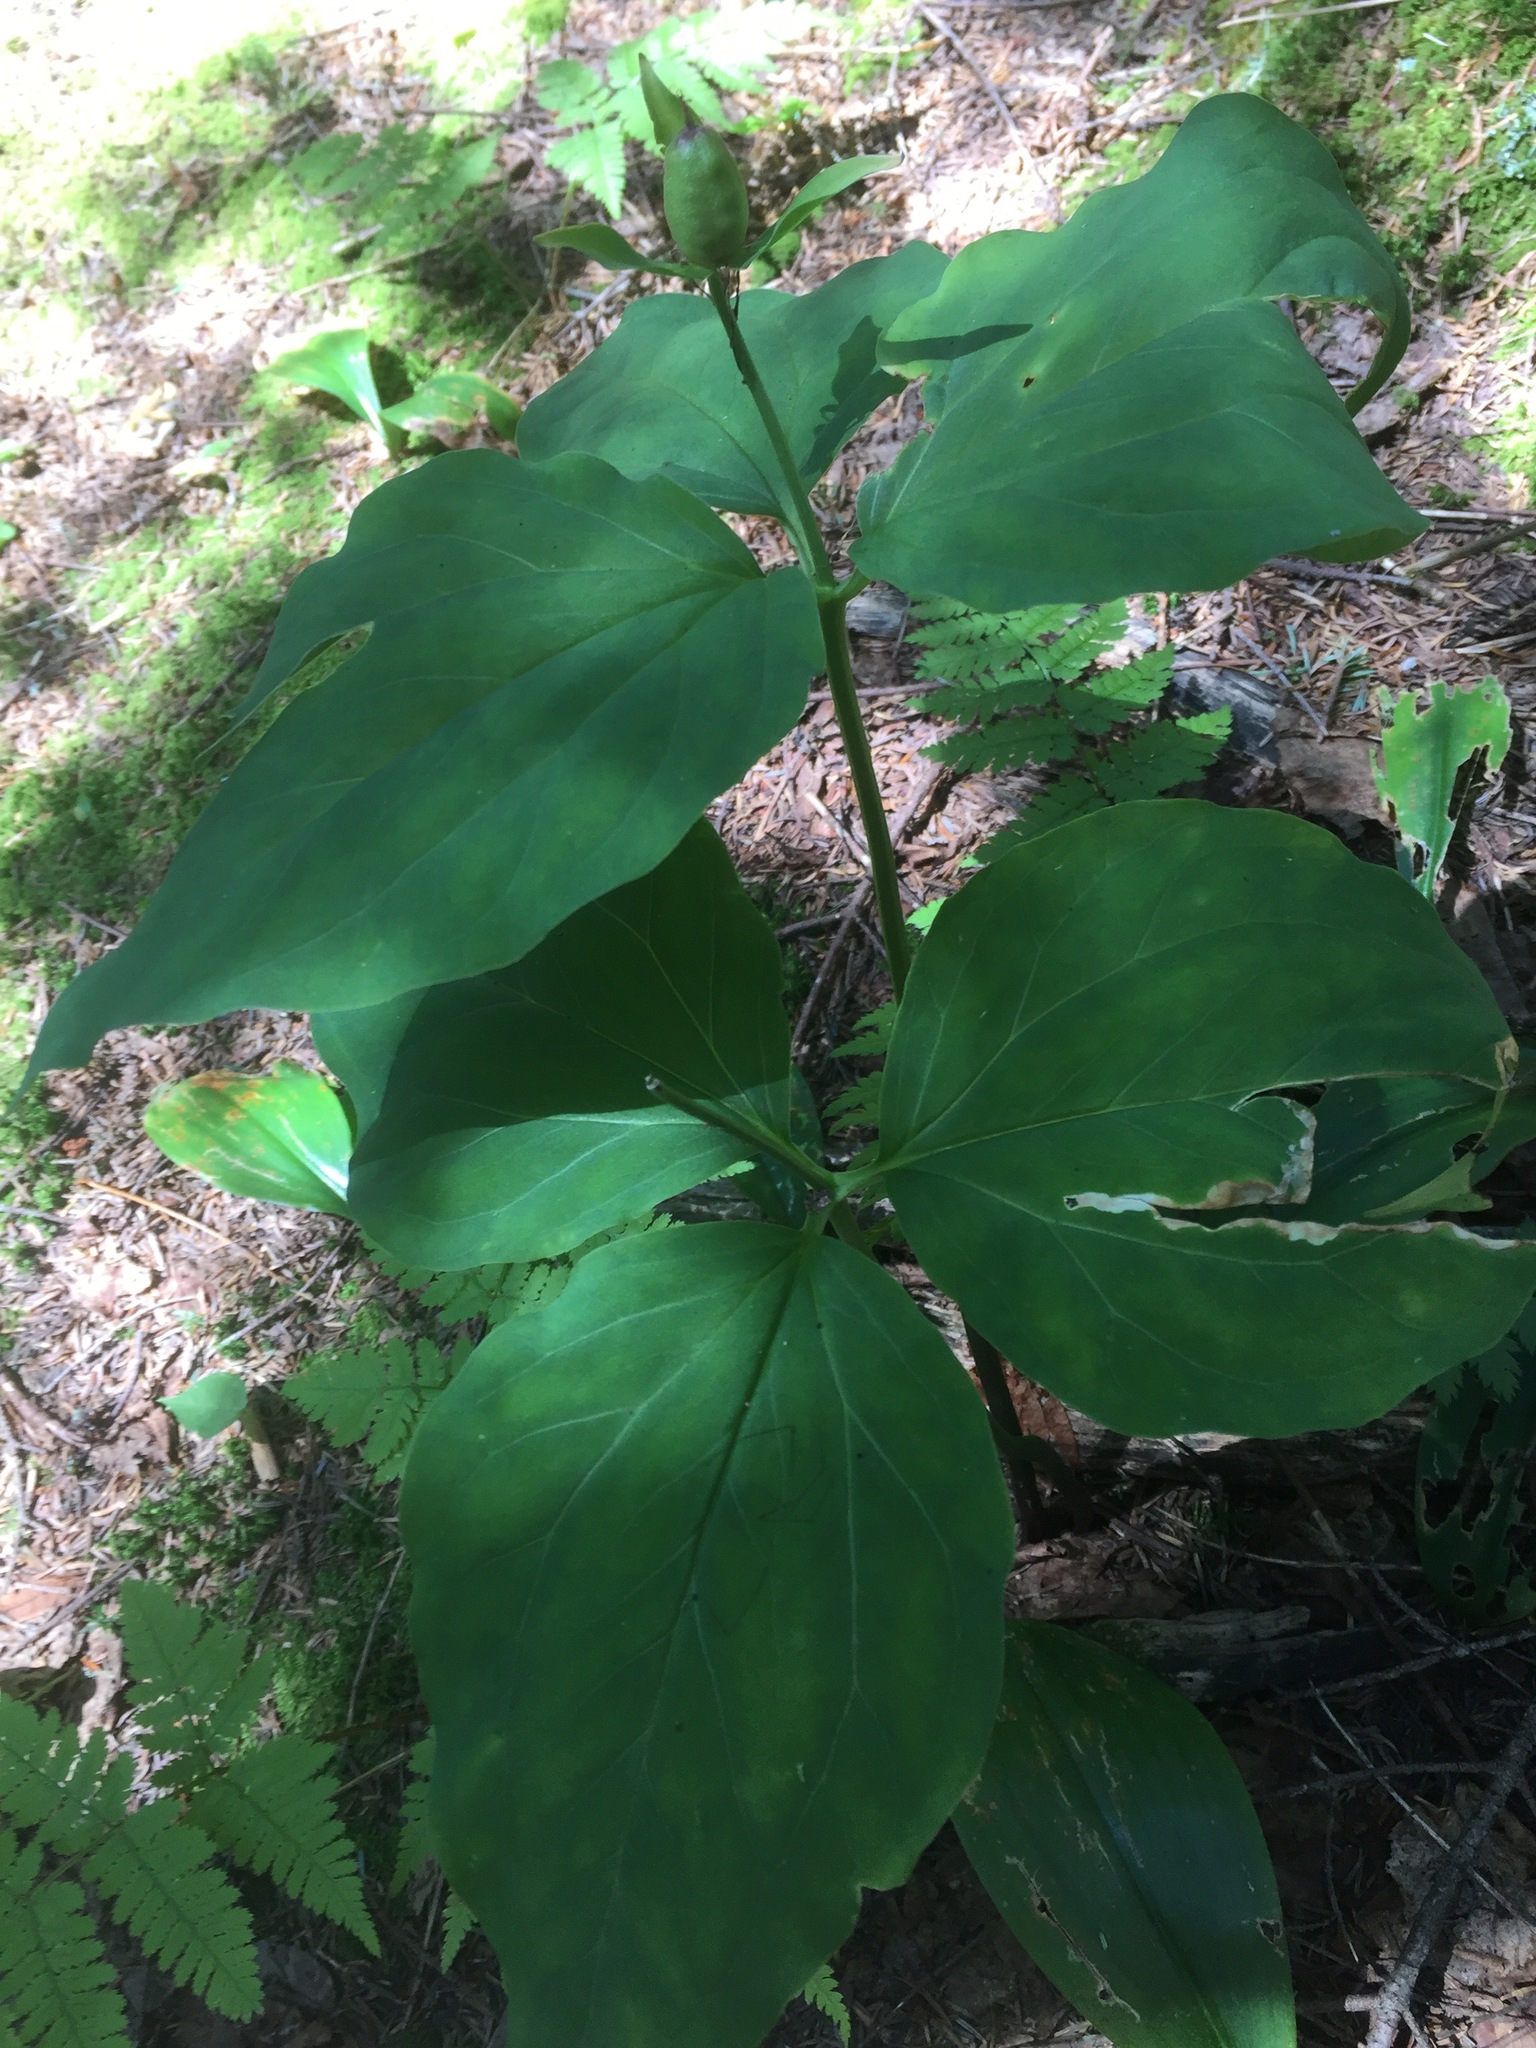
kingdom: Plantae
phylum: Tracheophyta
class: Liliopsida
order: Liliales
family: Melanthiaceae
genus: Trillium
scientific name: Trillium undulatum
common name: Paint trillium
